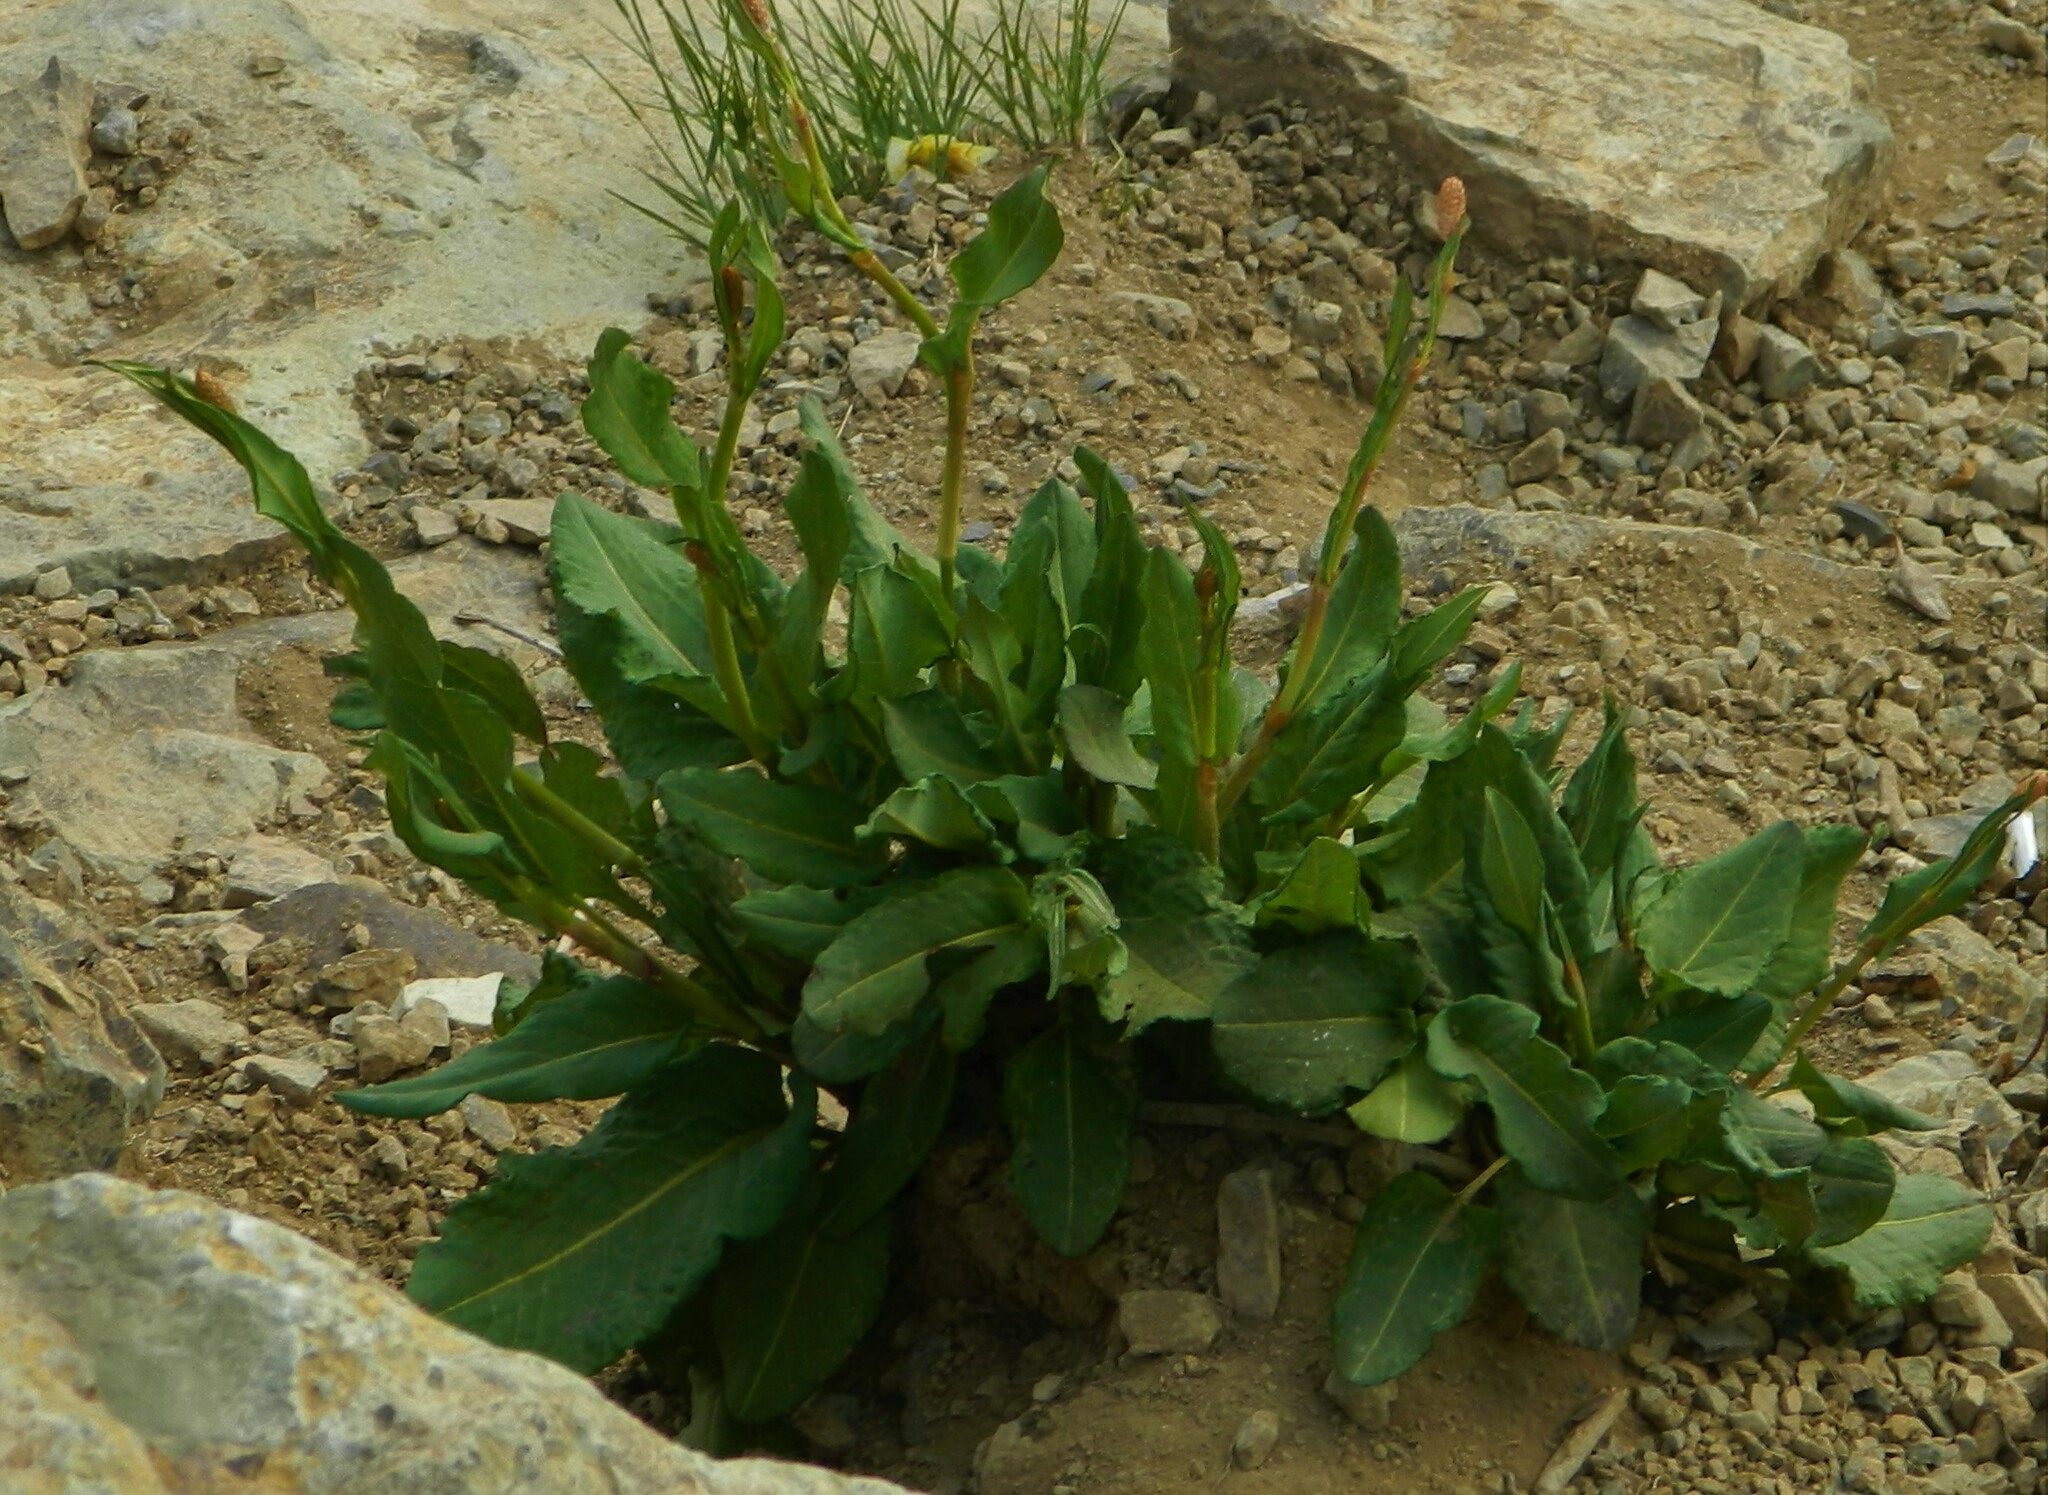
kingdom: Plantae
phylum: Tracheophyta
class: Magnoliopsida
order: Caryophyllales
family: Polygonaceae
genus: Bistorta
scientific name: Bistorta carnea
